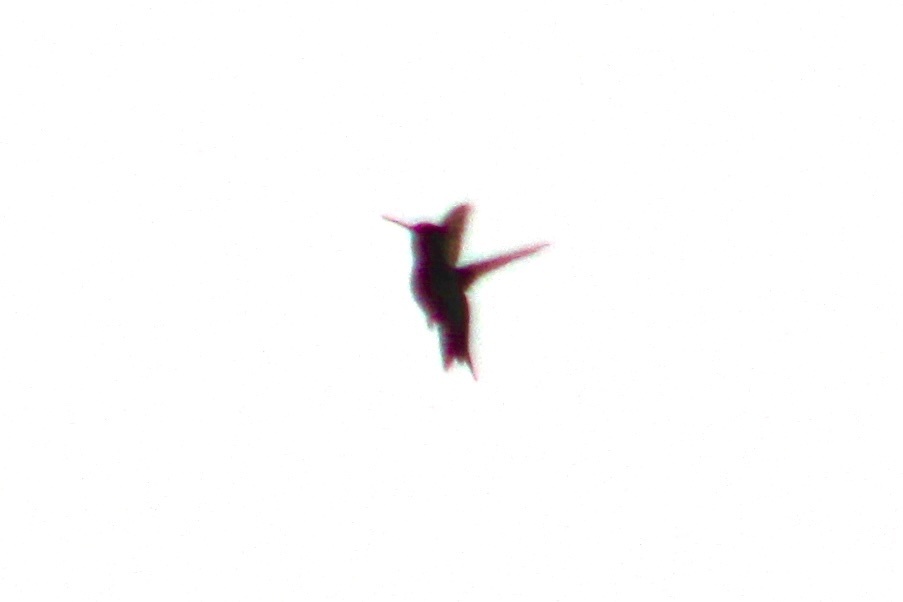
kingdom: Animalia
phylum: Chordata
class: Aves
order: Apodiformes
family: Trochilidae
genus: Archilochus
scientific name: Archilochus colubris
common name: Ruby-throated hummingbird
